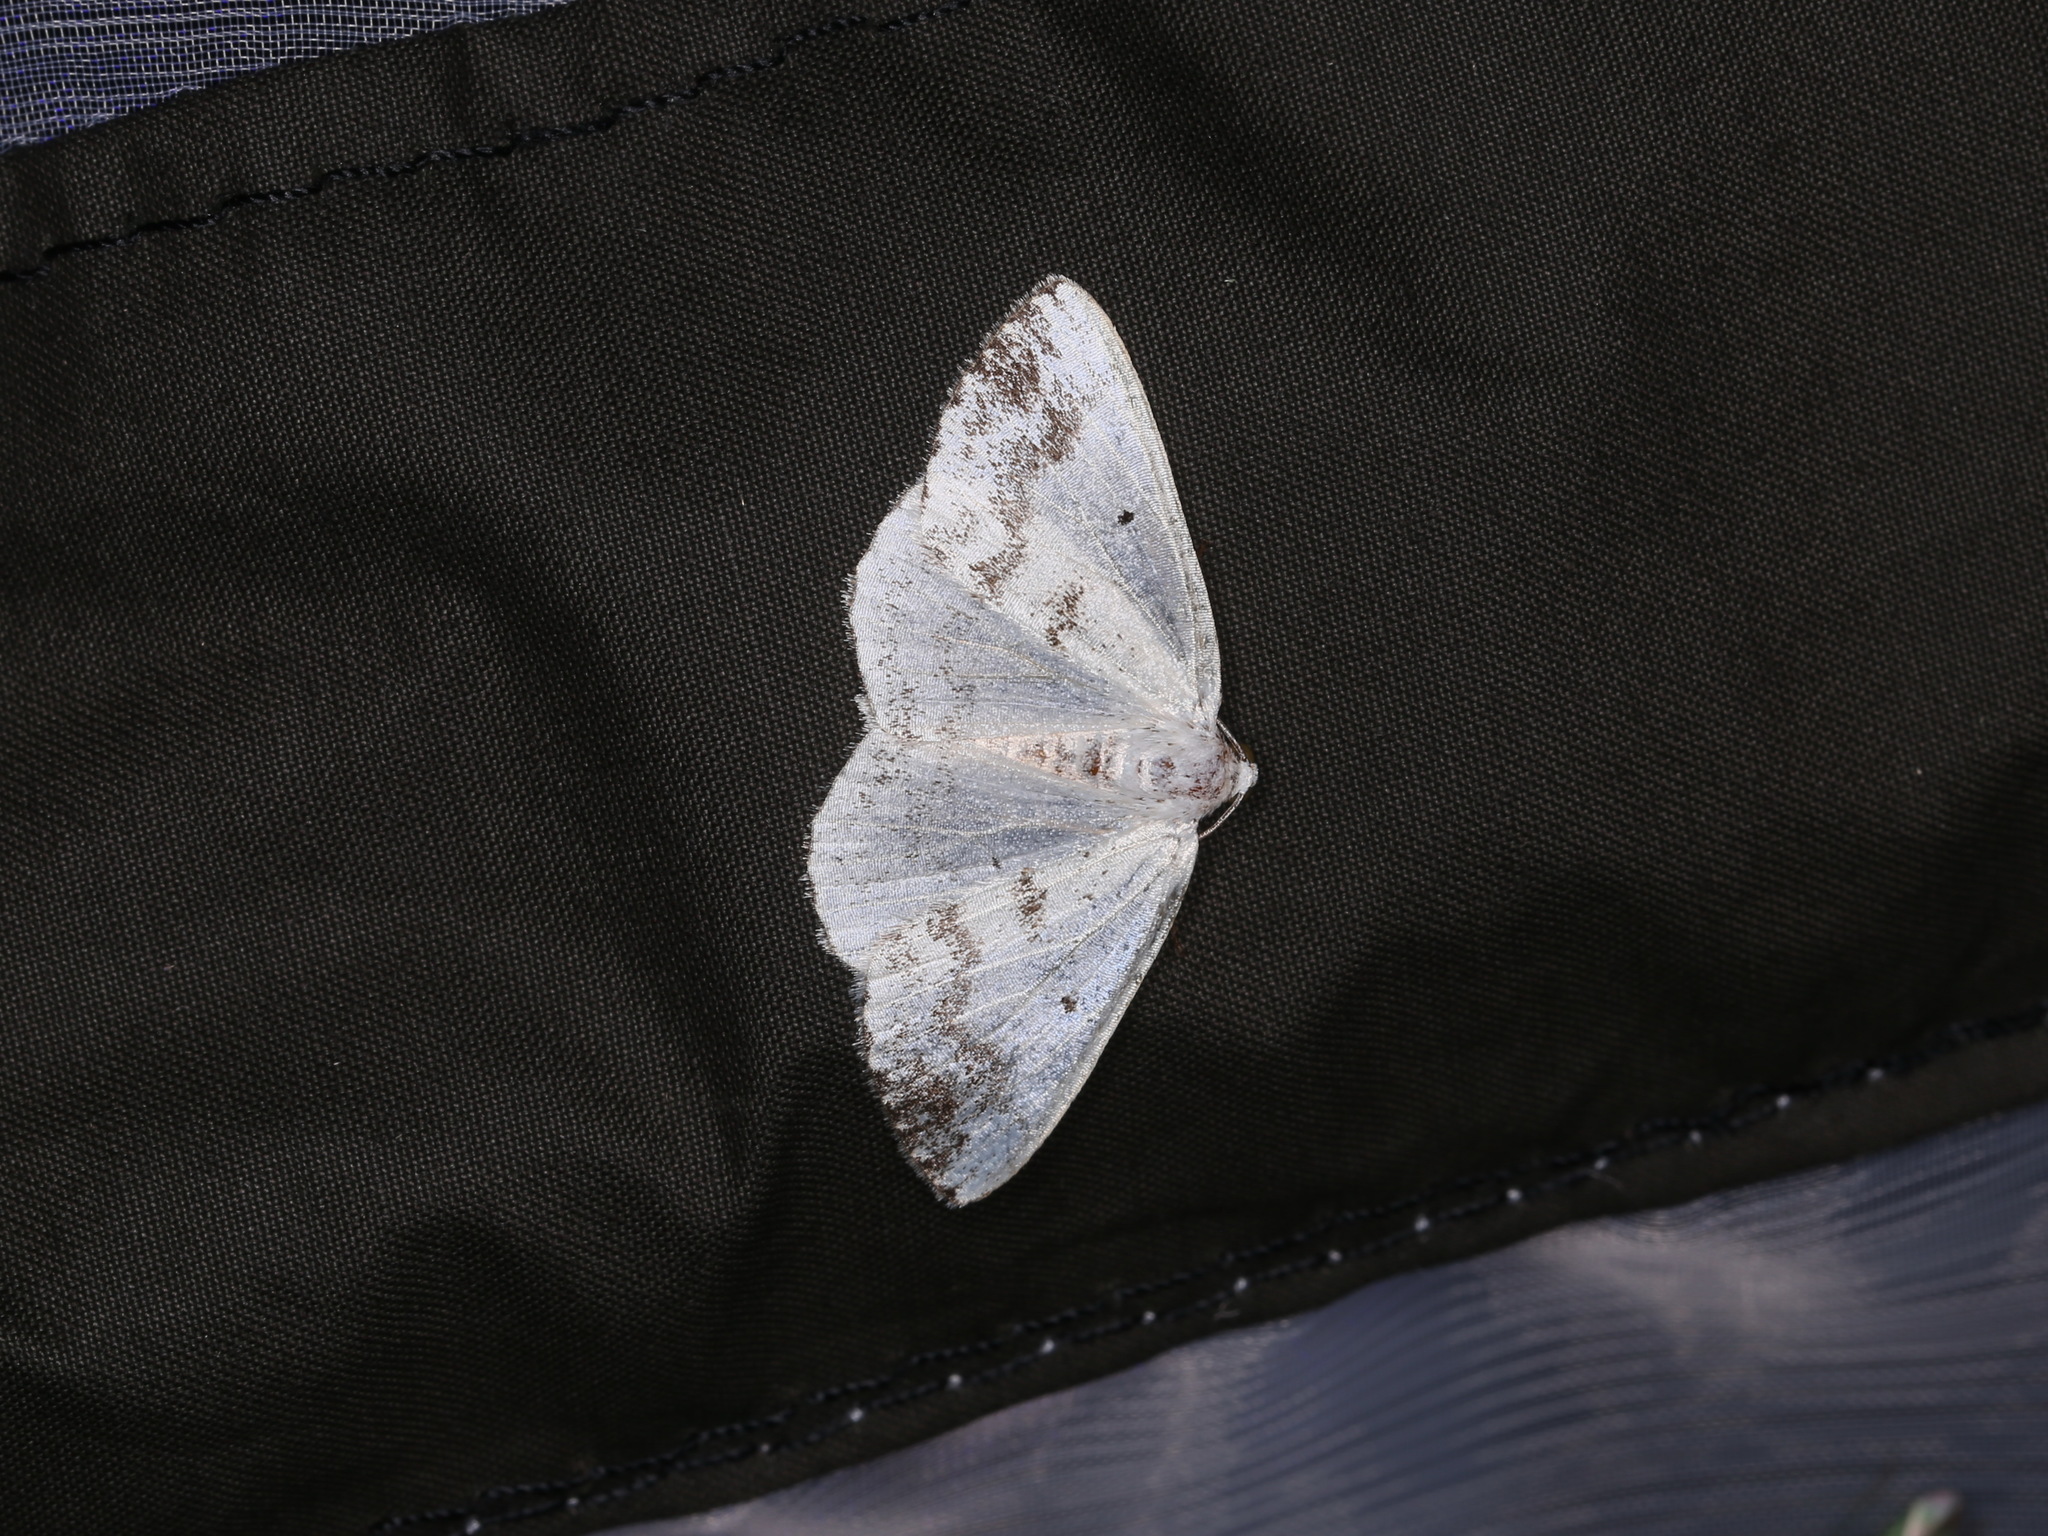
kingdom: Animalia
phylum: Arthropoda
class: Insecta
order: Lepidoptera
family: Geometridae
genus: Lomographa
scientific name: Lomographa temerata
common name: Clouded silver
